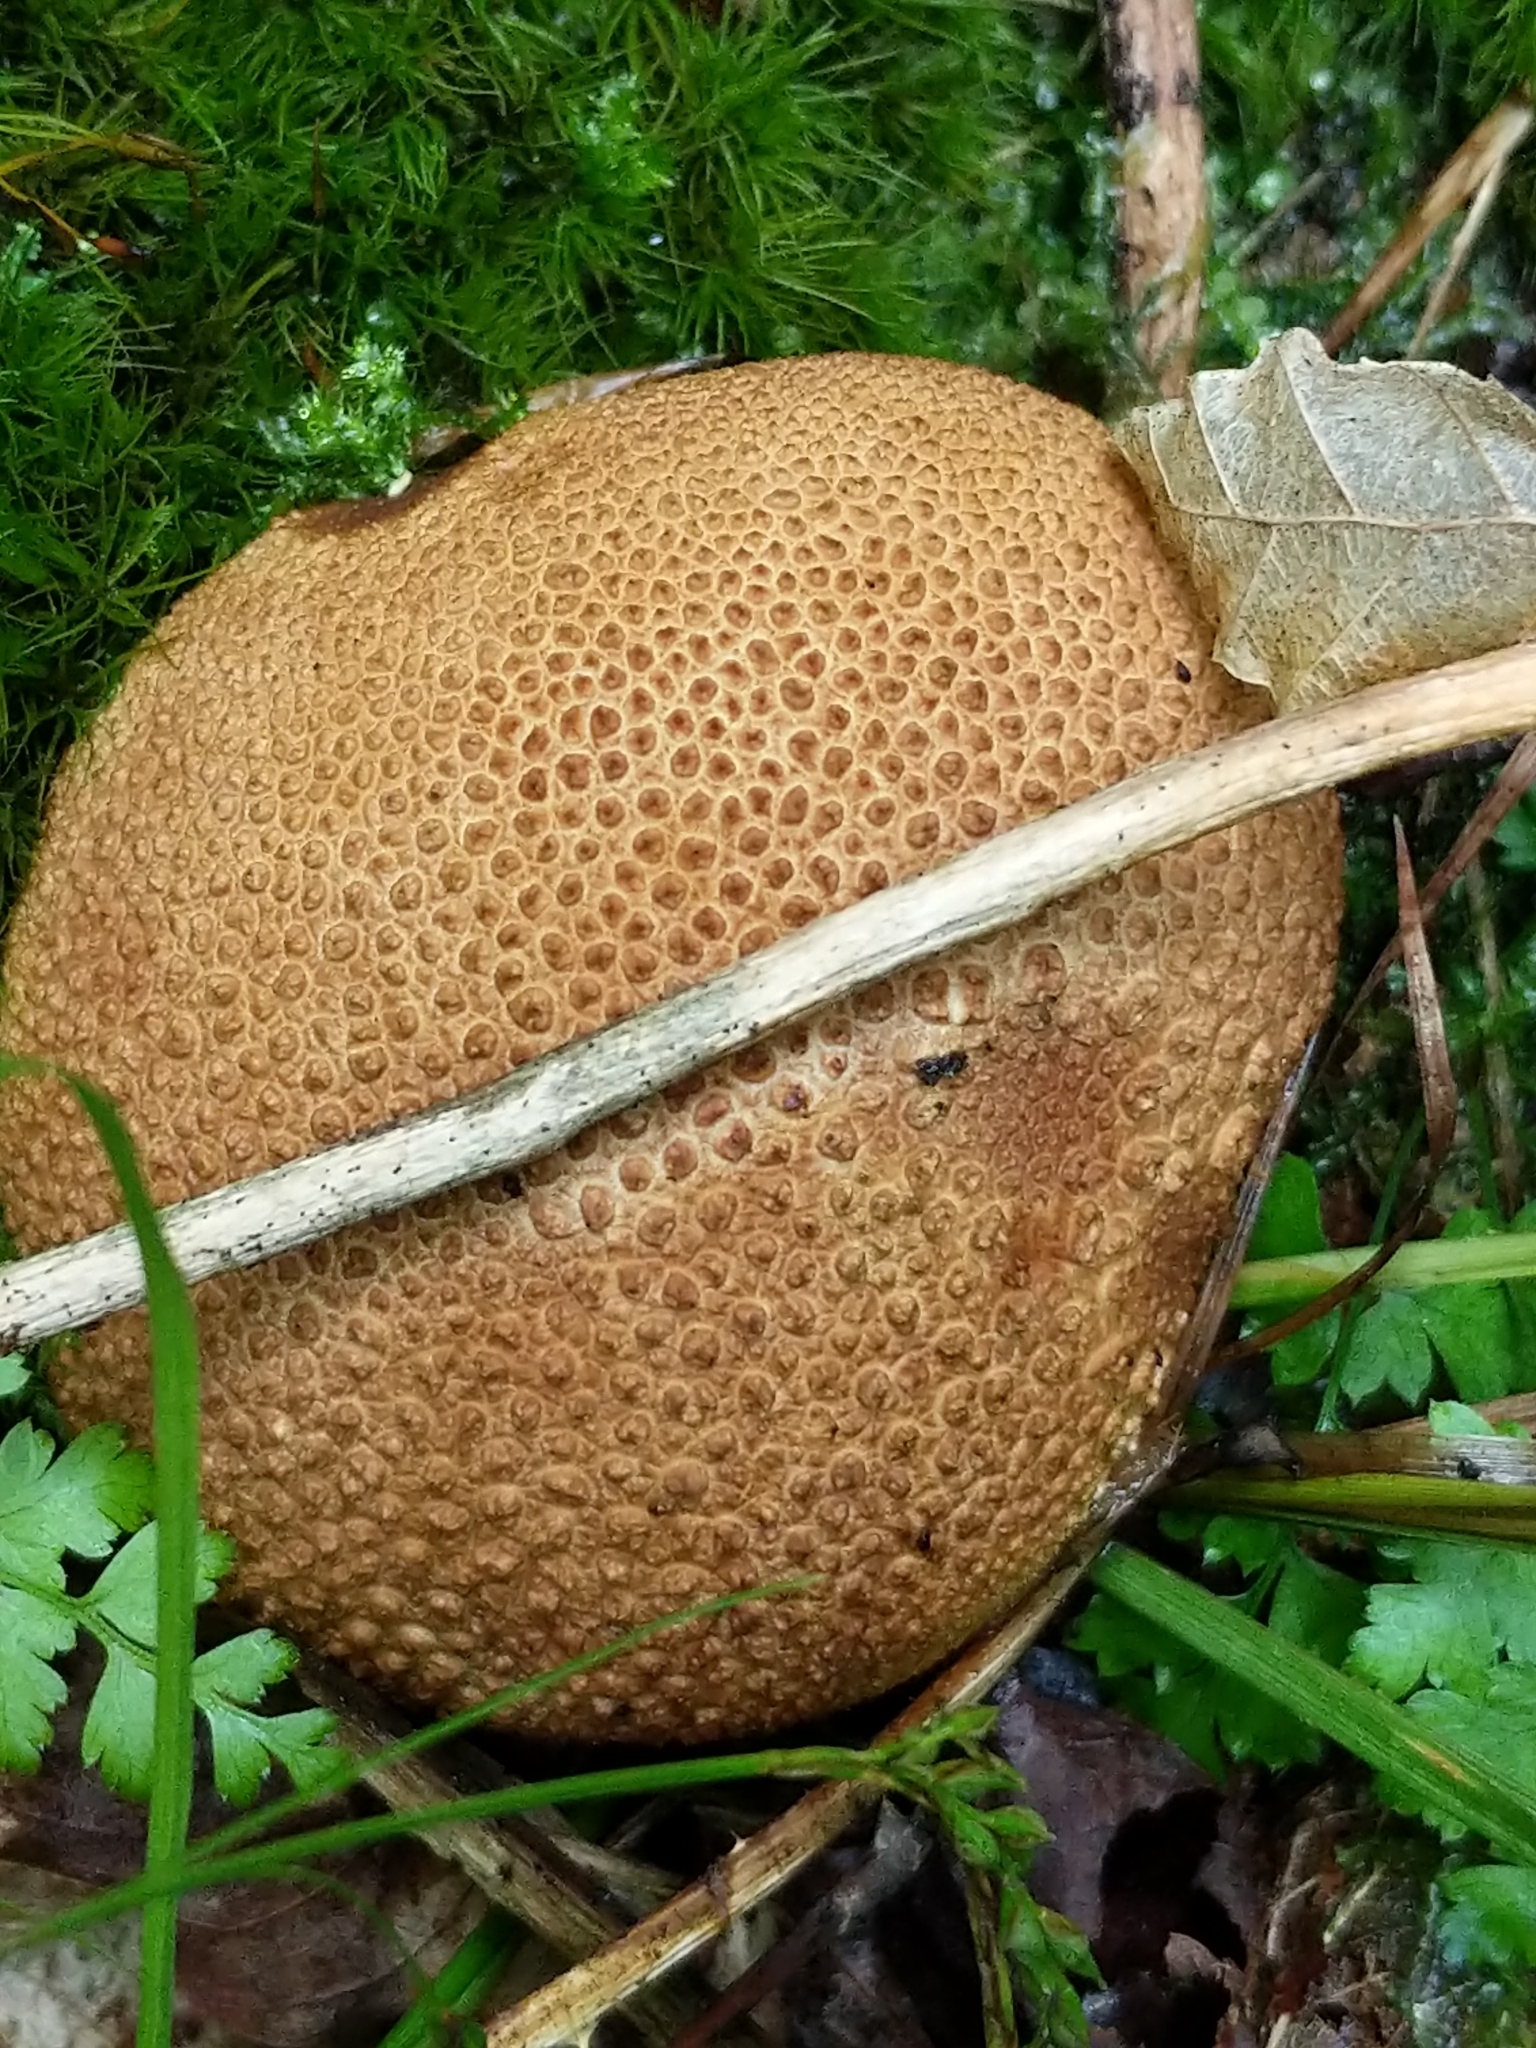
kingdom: Fungi
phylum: Basidiomycota
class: Agaricomycetes
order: Boletales
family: Sclerodermataceae
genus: Scleroderma
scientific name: Scleroderma citrinum
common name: Common earthball
